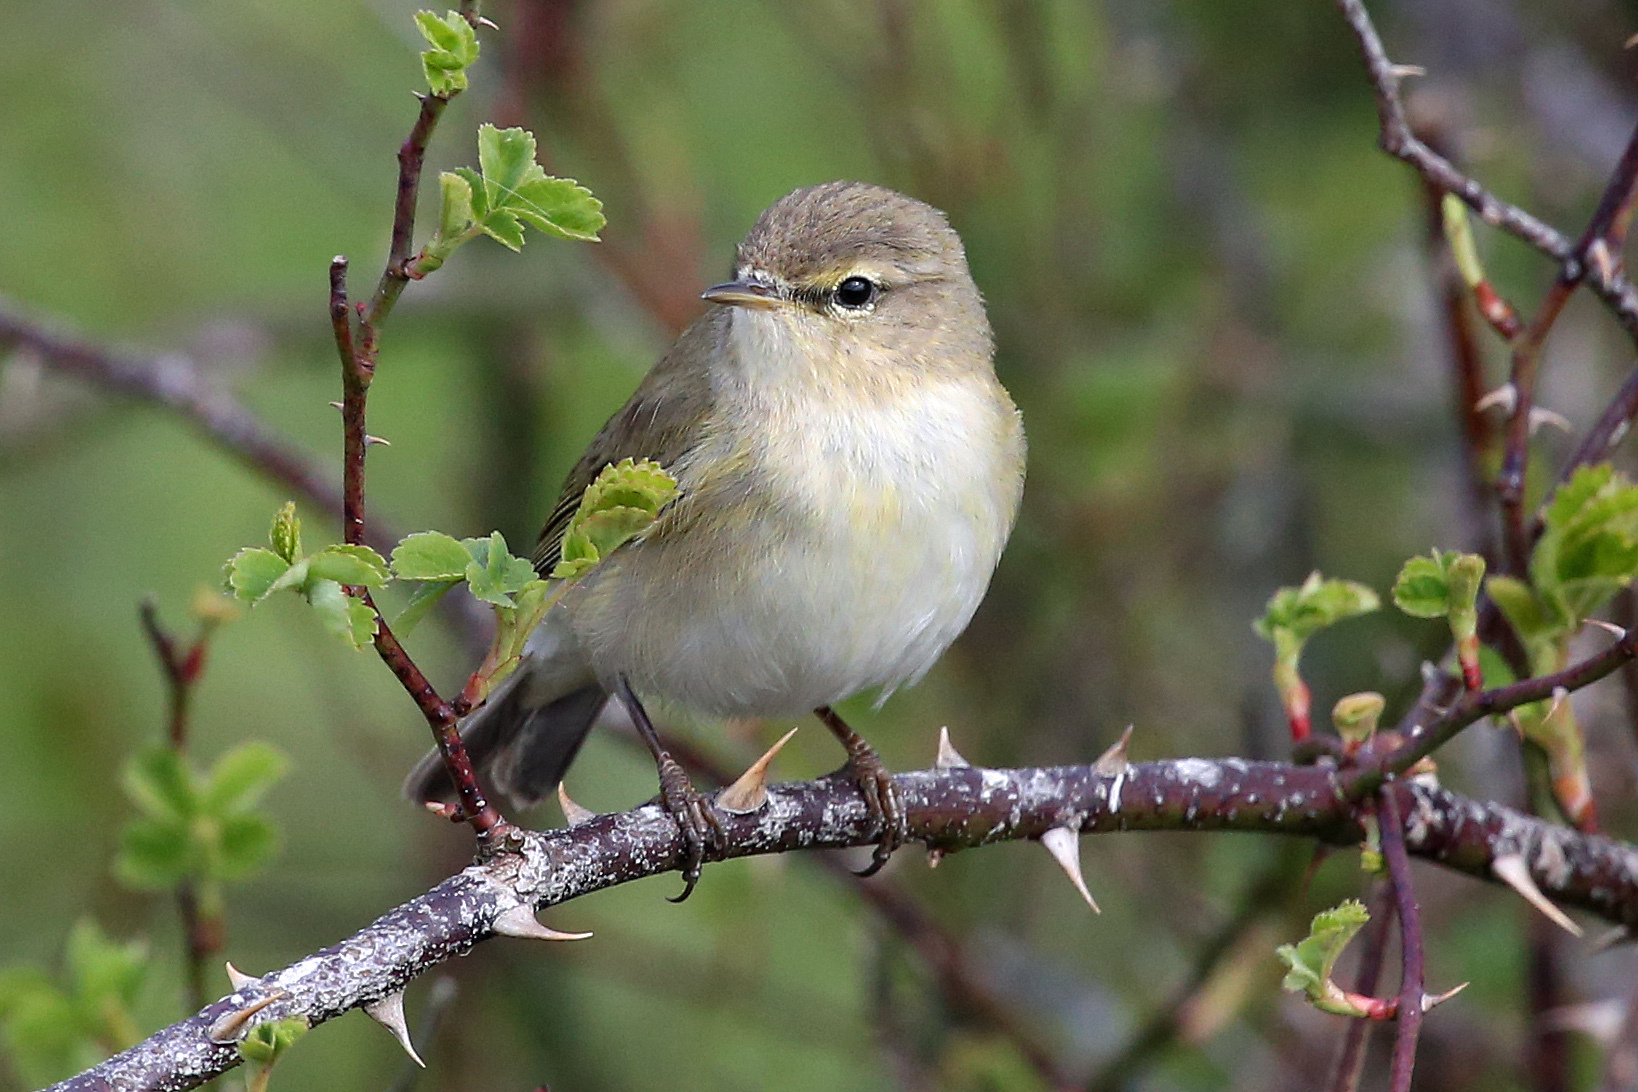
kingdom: Animalia
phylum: Chordata
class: Aves
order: Passeriformes
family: Phylloscopidae
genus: Phylloscopus
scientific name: Phylloscopus collybita
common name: Common chiffchaff
